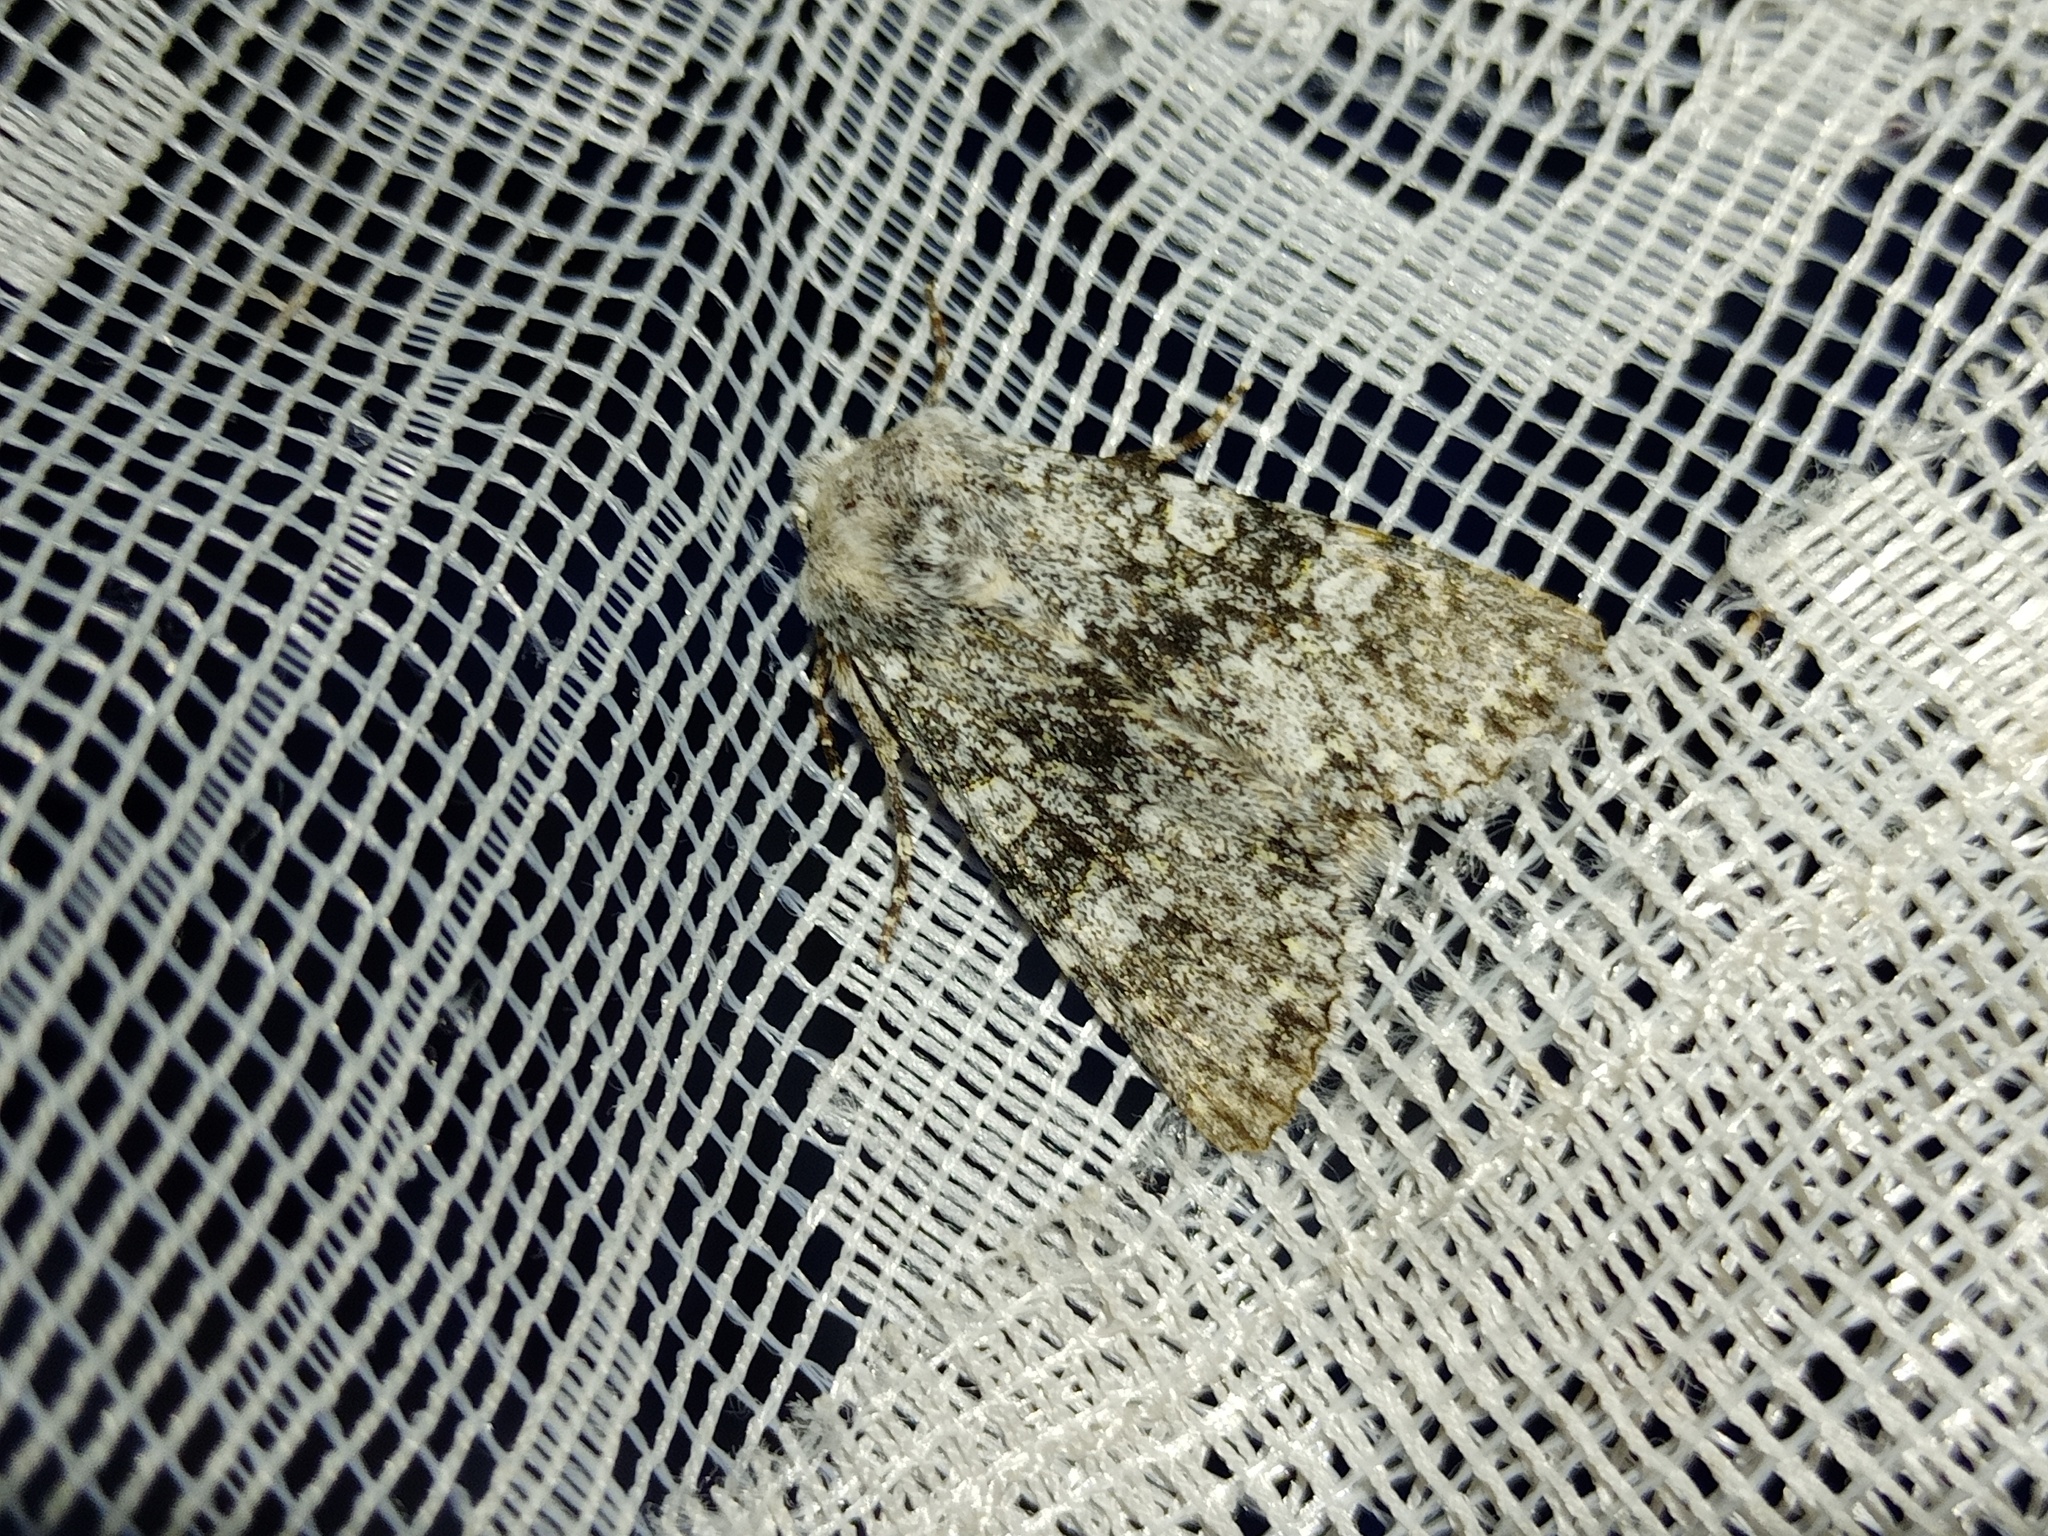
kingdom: Animalia
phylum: Arthropoda
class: Insecta
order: Lepidoptera
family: Noctuidae
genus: Polymixis
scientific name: Polymixis xanthomista
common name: Black-banded
